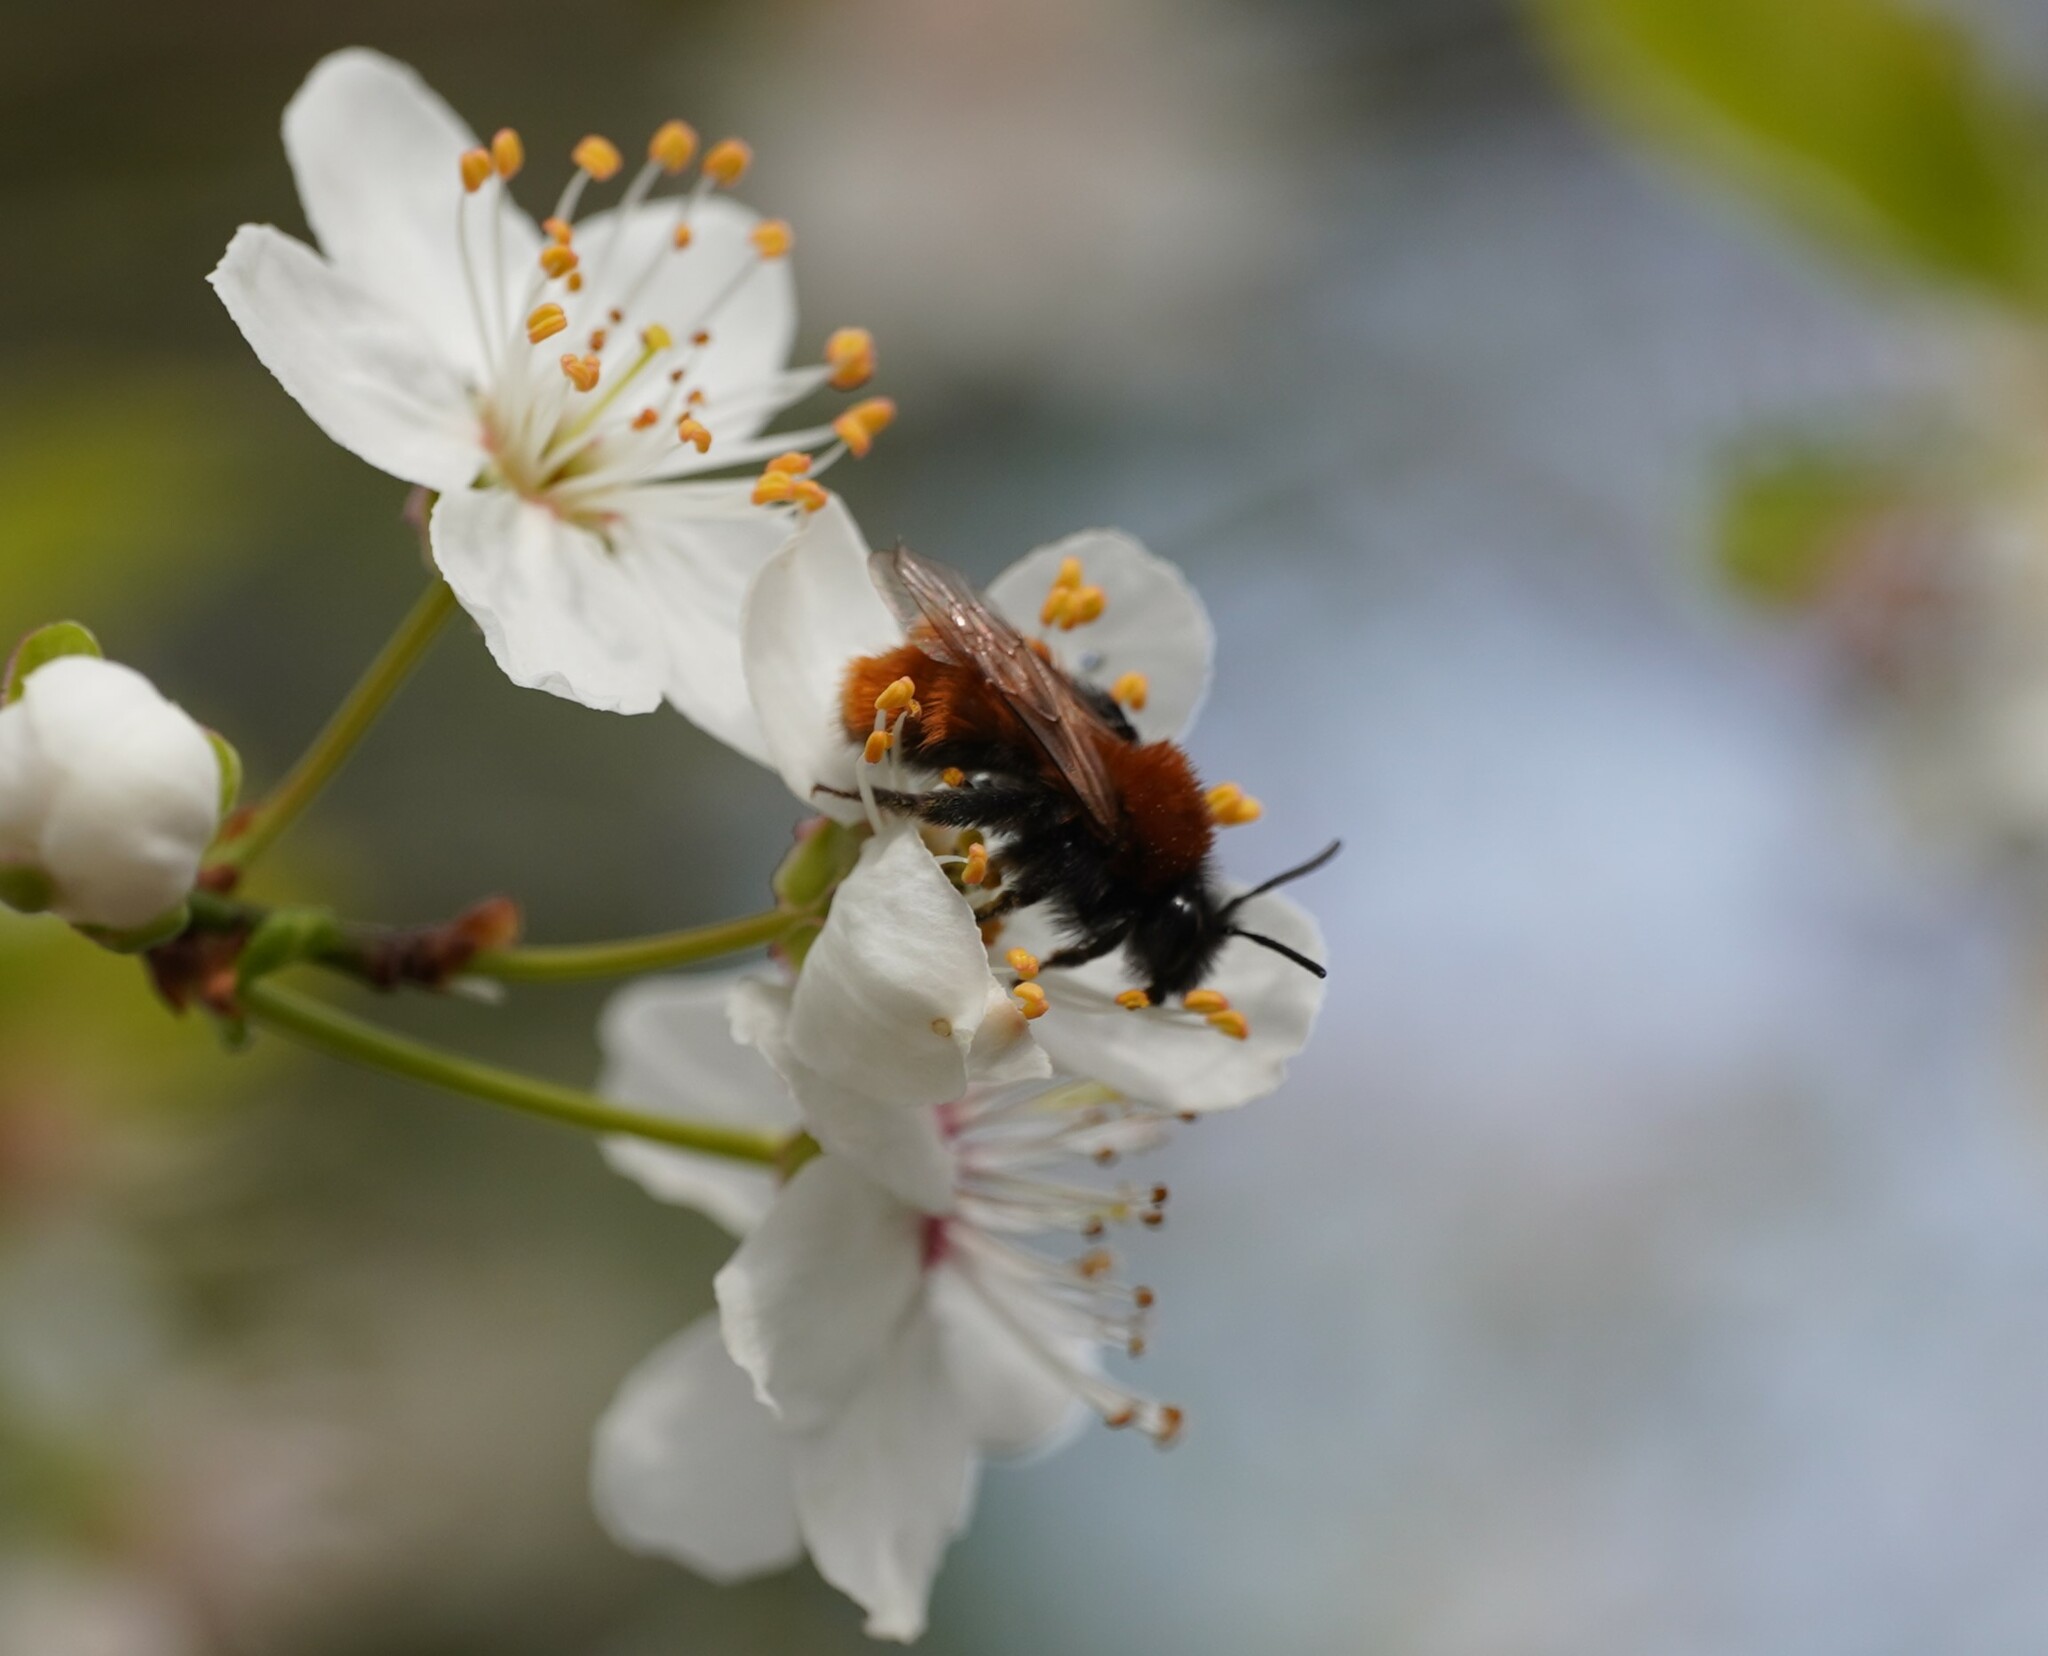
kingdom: Animalia
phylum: Arthropoda
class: Insecta
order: Hymenoptera
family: Andrenidae
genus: Andrena
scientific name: Andrena fulva
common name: Tawny mining bee
